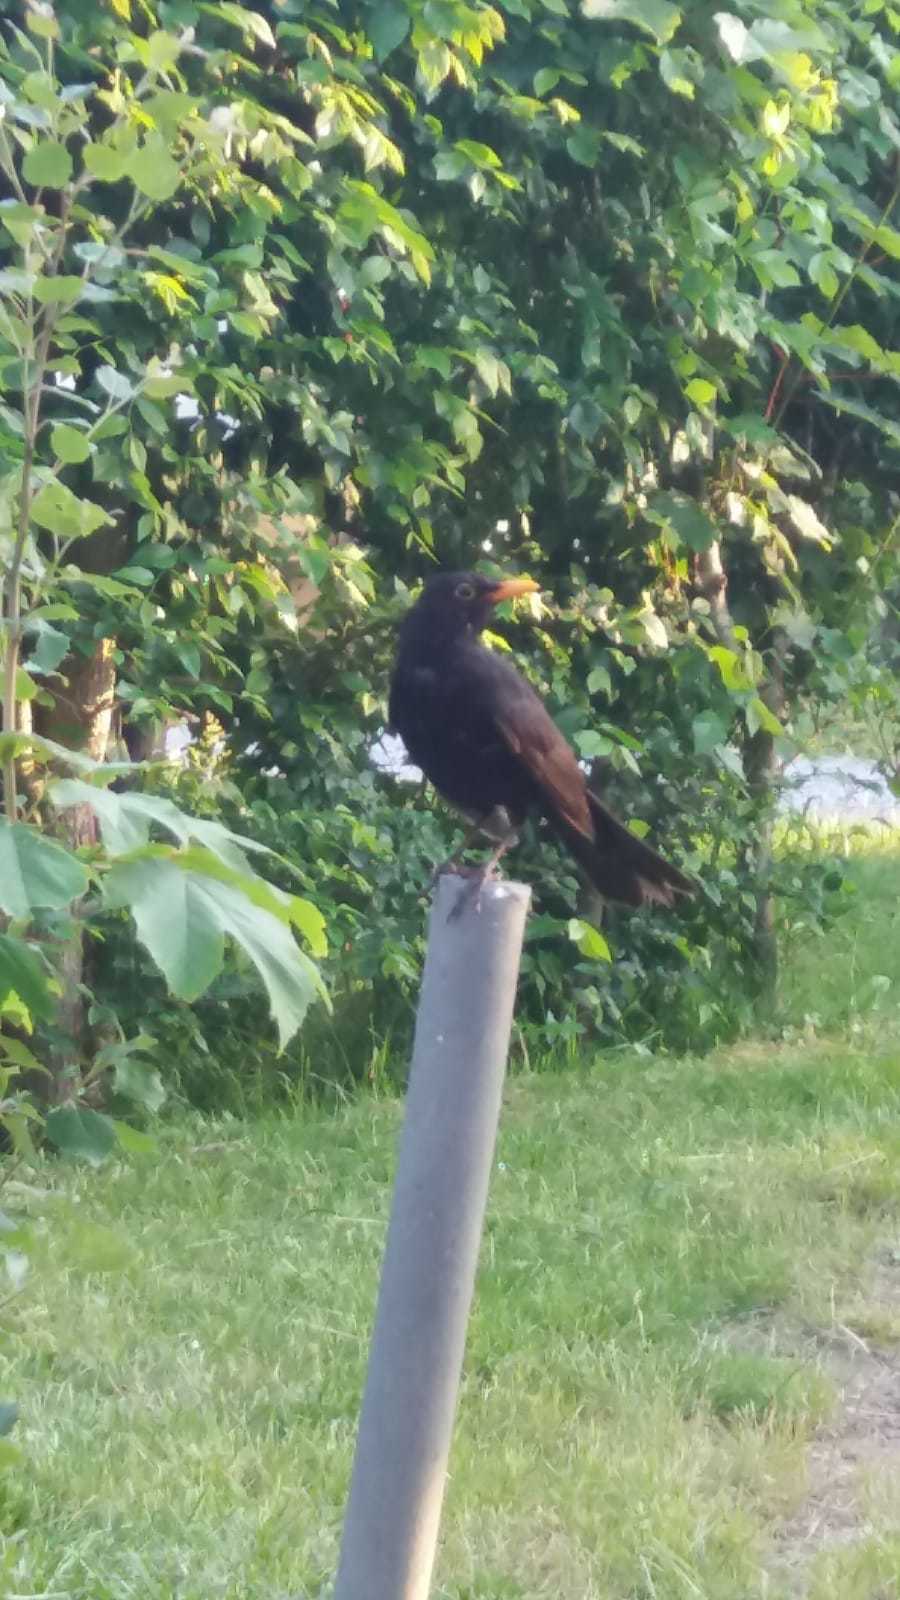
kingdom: Animalia
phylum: Chordata
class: Aves
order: Passeriformes
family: Turdidae
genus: Turdus
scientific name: Turdus merula
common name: Common blackbird
